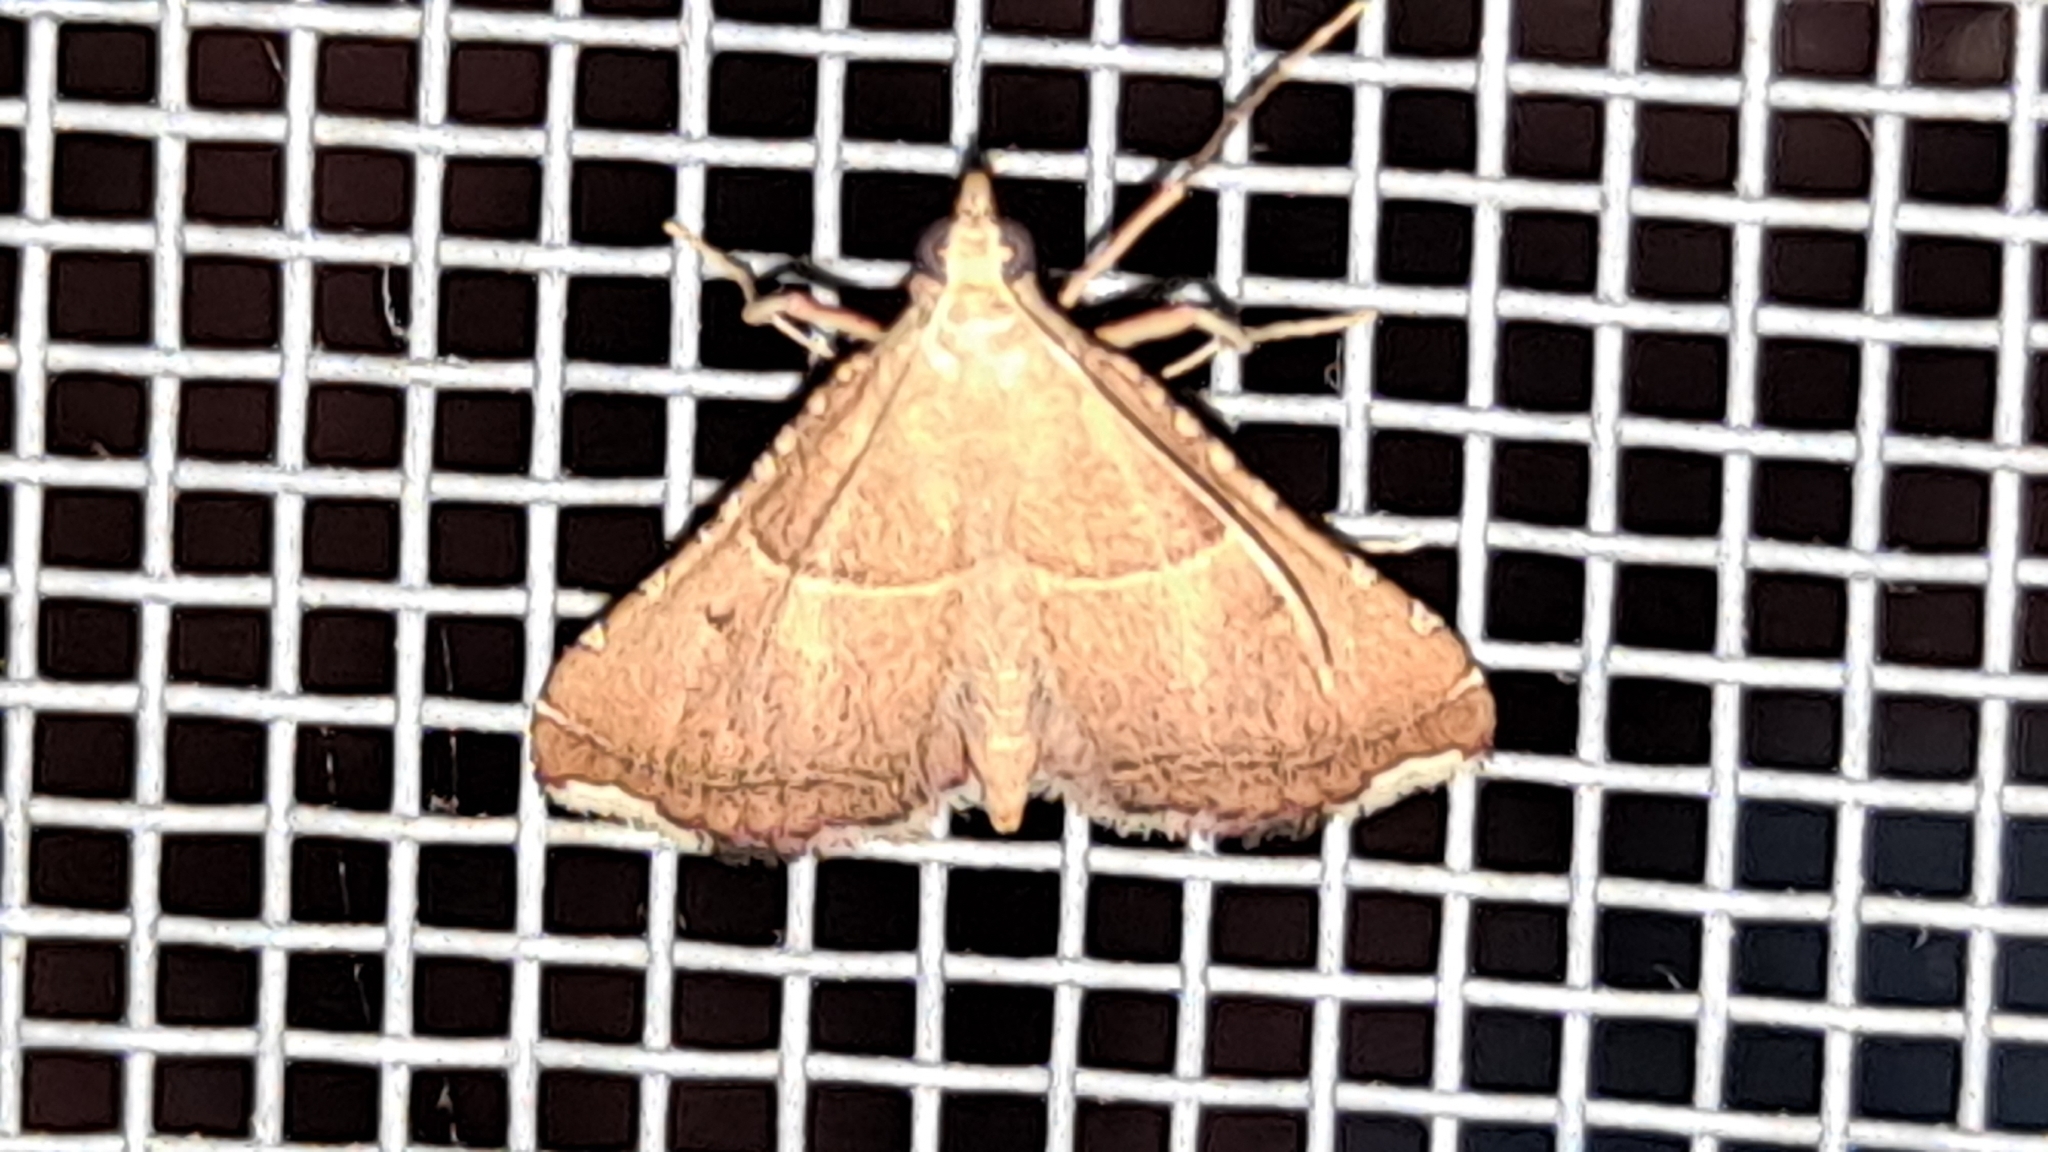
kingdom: Animalia
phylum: Arthropoda
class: Insecta
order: Lepidoptera
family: Pyralidae
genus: Endotricha
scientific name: Endotricha flammealis
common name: Rosy tabby
